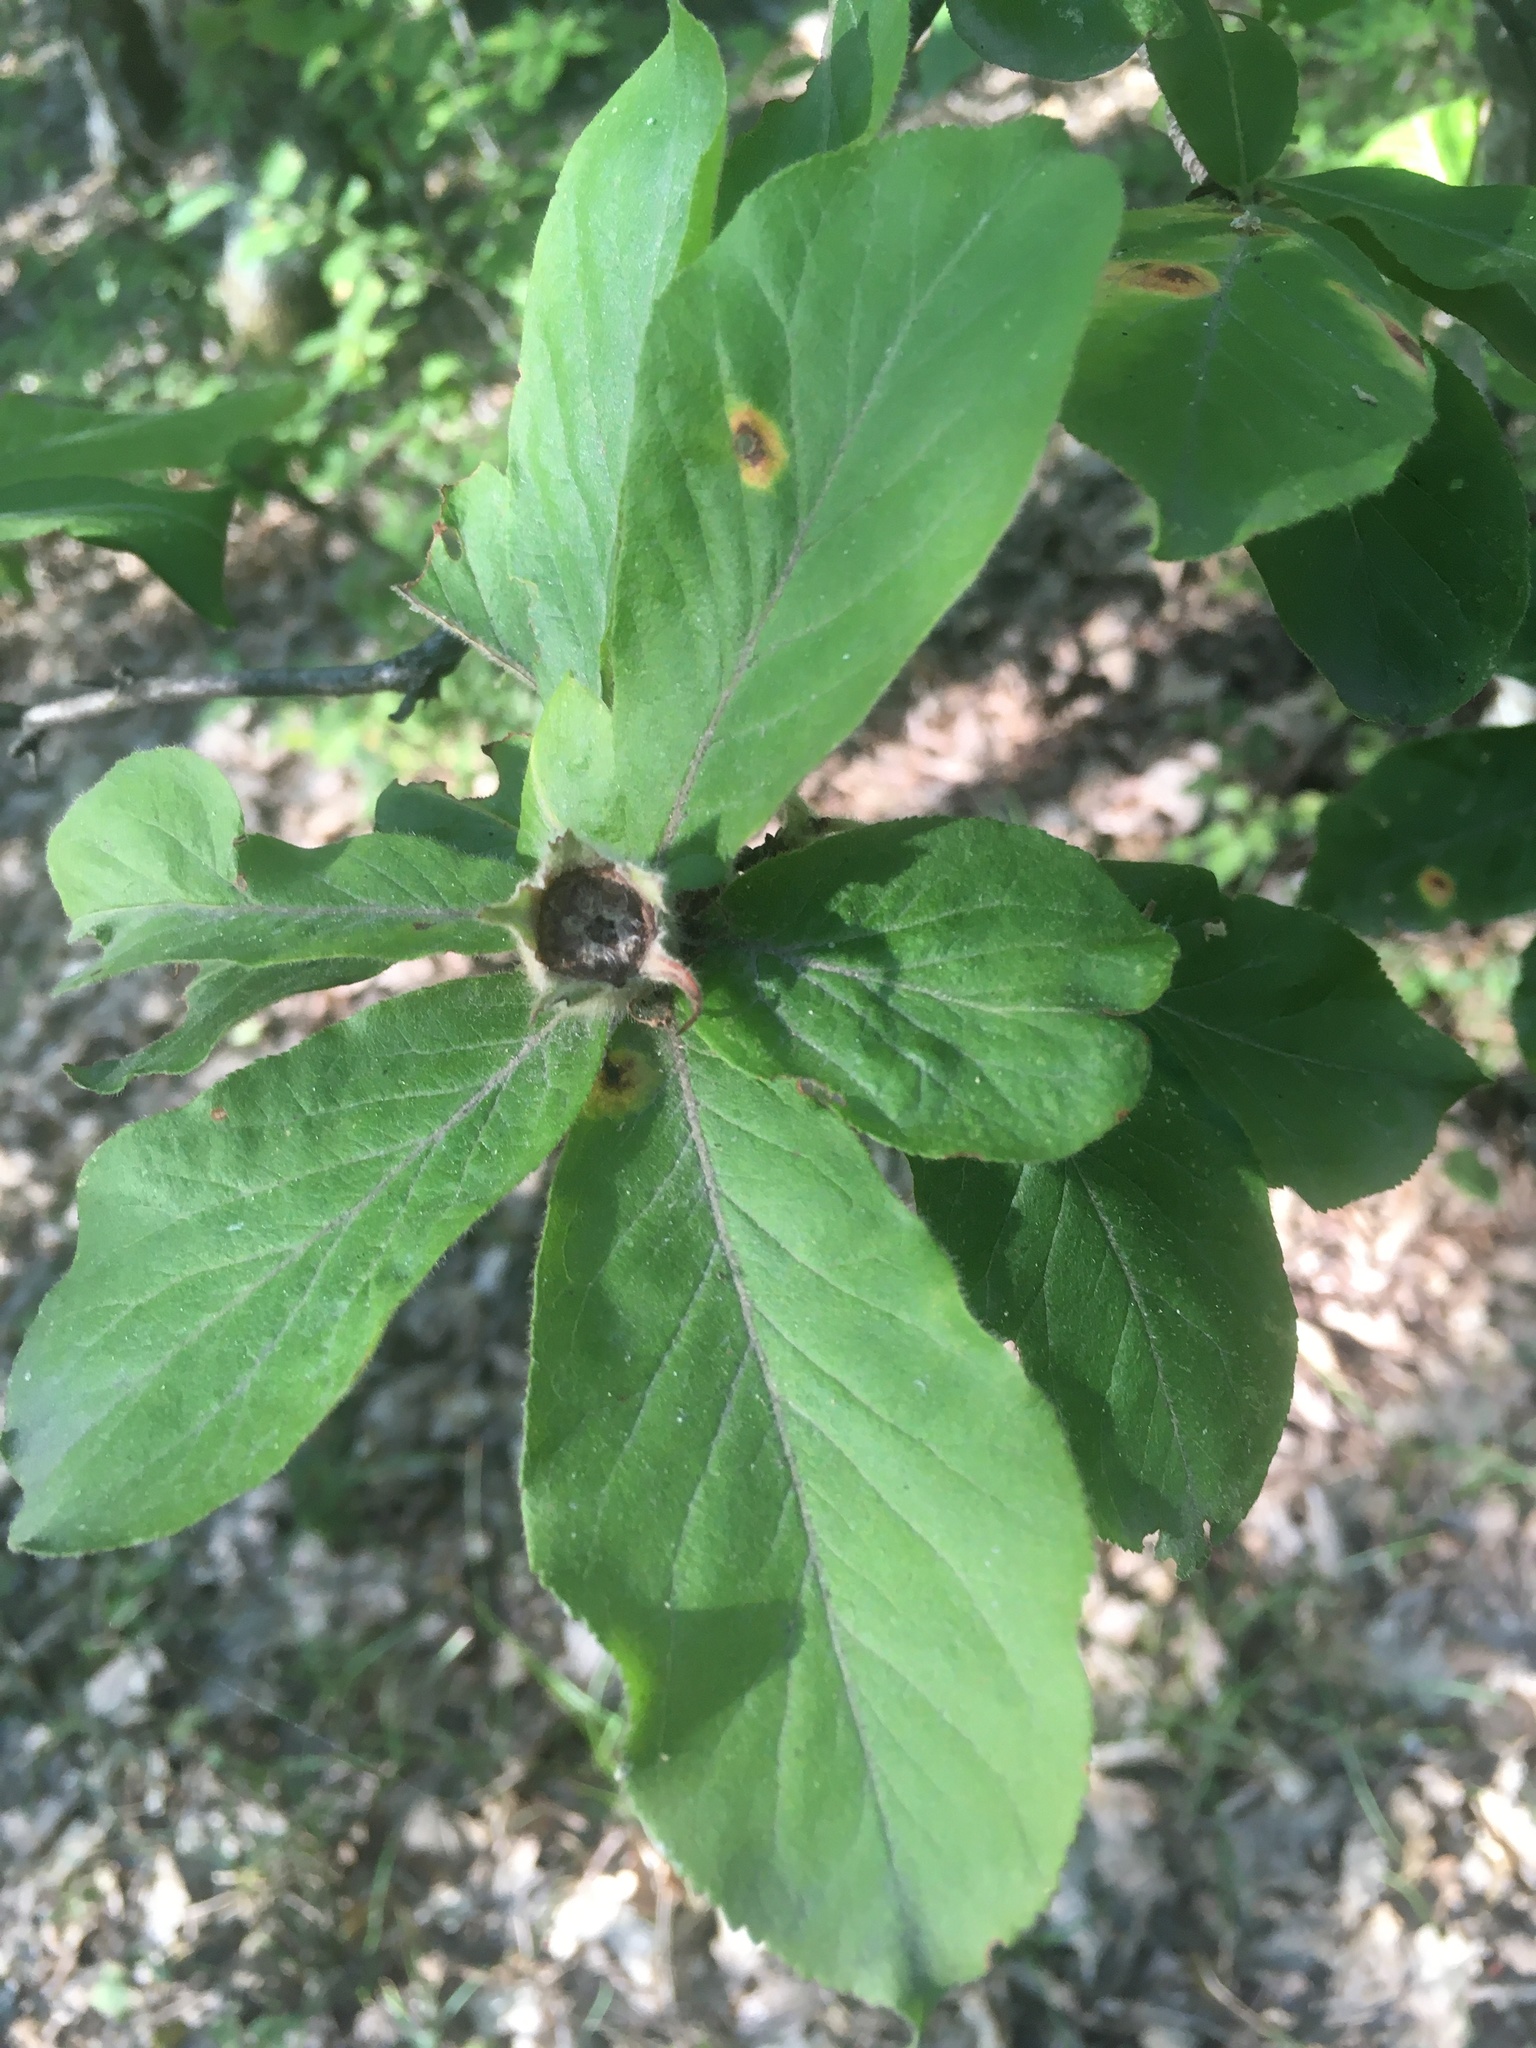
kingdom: Plantae
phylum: Tracheophyta
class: Magnoliopsida
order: Rosales
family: Rosaceae
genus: Mespilus
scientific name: Mespilus germanica
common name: Medlar
